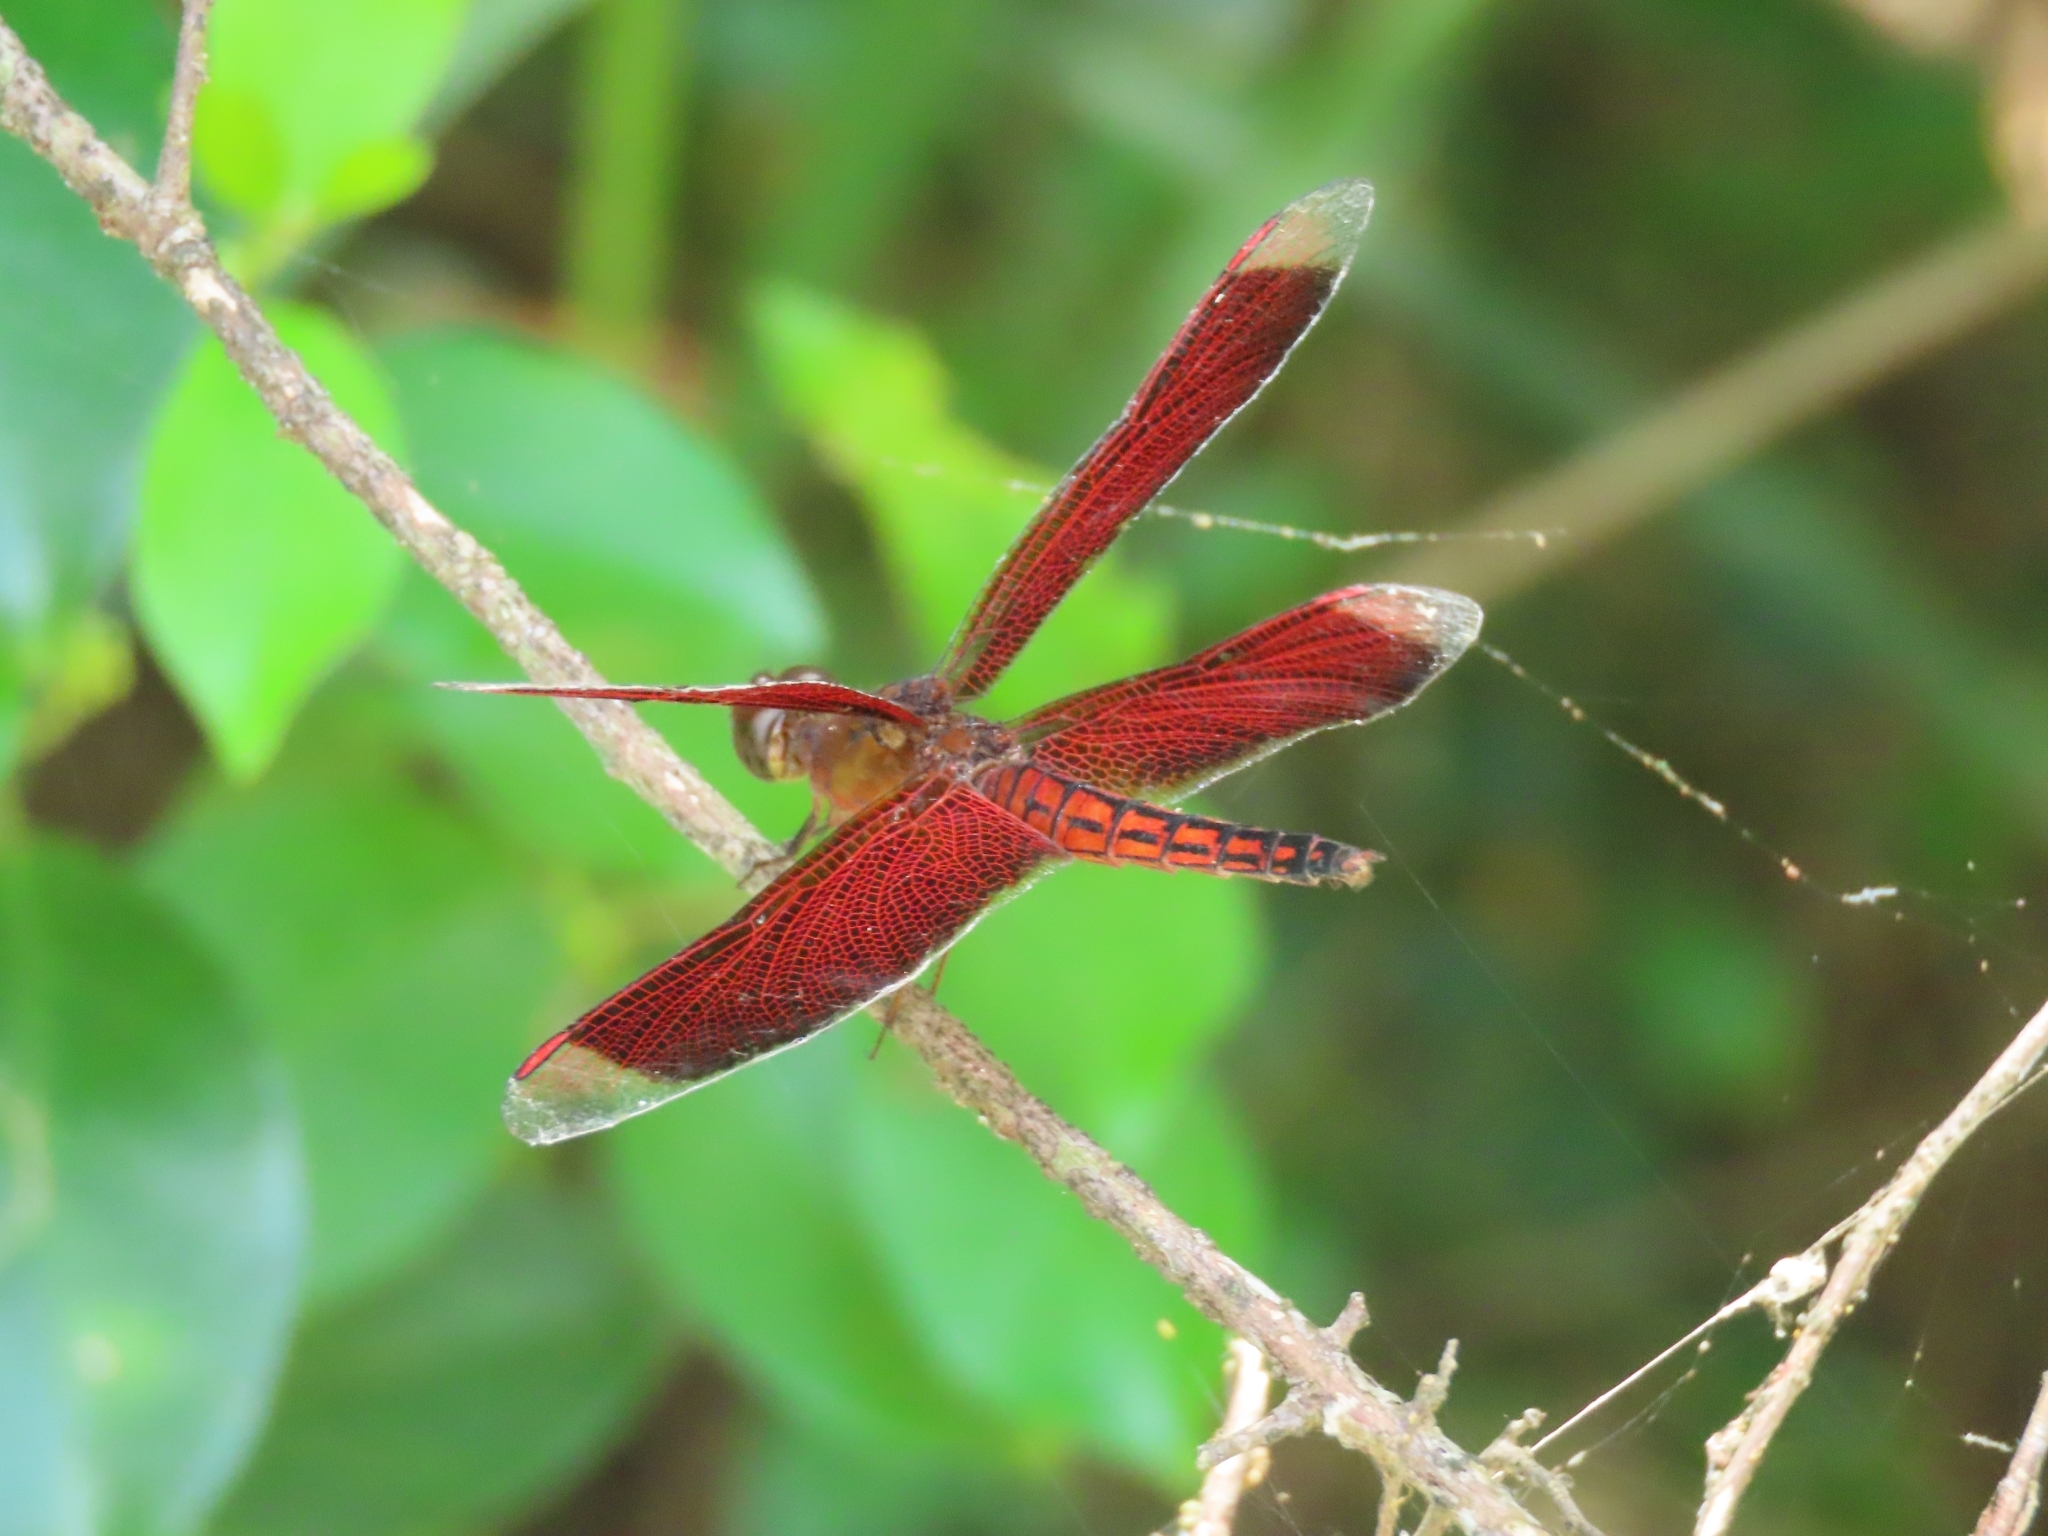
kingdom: Animalia
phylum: Arthropoda
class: Insecta
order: Odonata
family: Libellulidae
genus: Neurothemis
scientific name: Neurothemis taiwanensis
